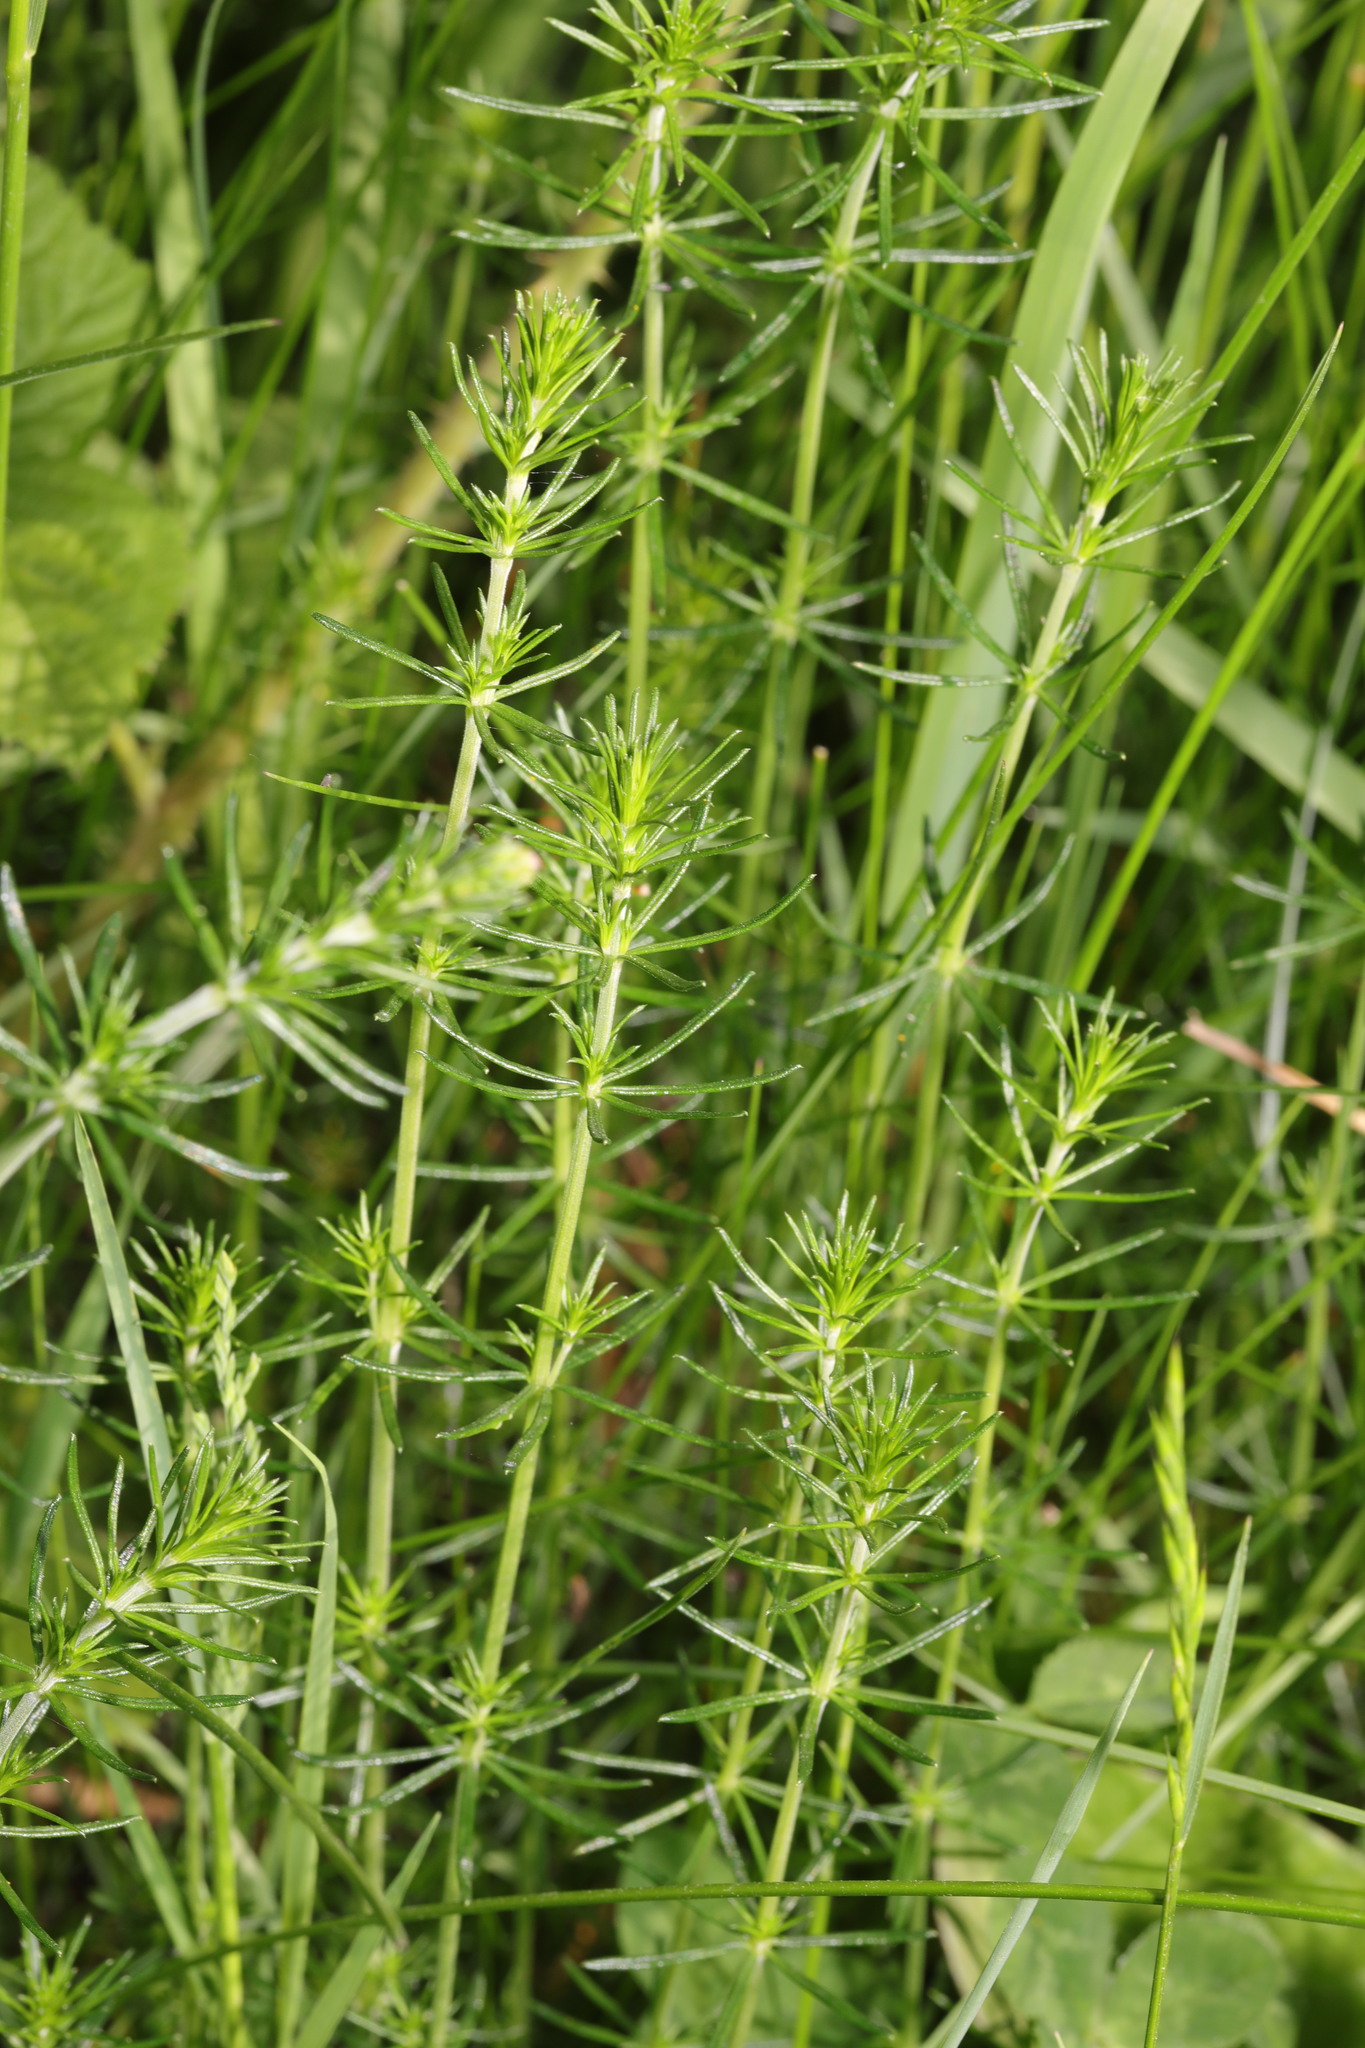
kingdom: Plantae
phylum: Tracheophyta
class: Magnoliopsida
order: Gentianales
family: Rubiaceae
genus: Galium
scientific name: Galium verum
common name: Lady's bedstraw
